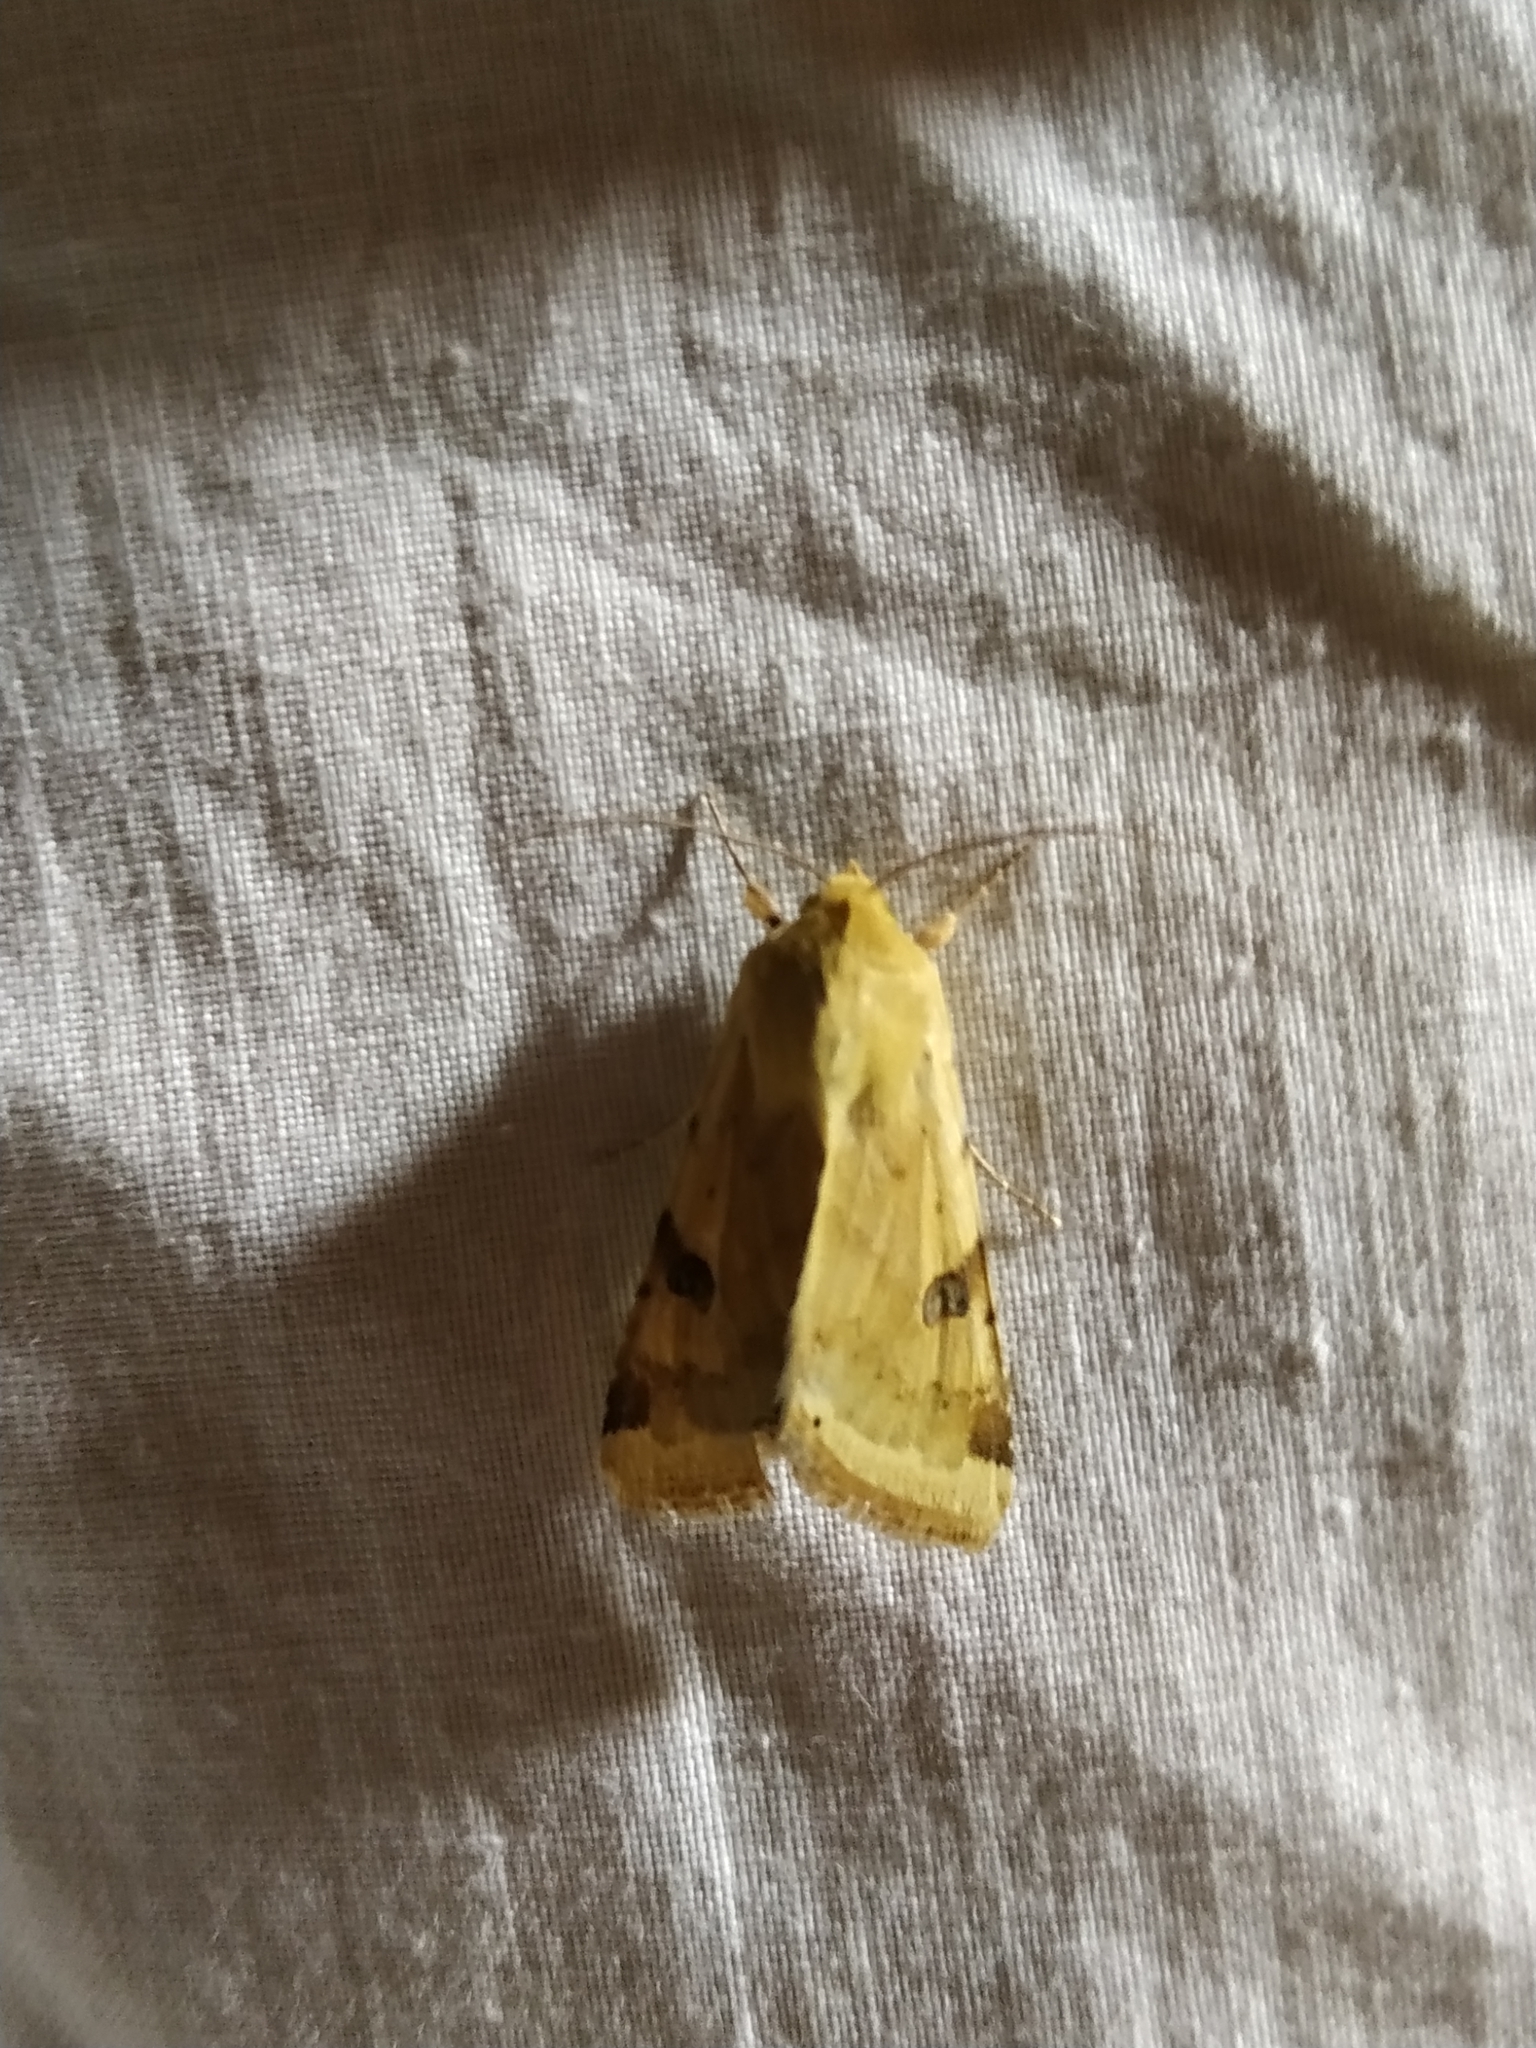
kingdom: Animalia
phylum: Arthropoda
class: Insecta
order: Lepidoptera
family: Noctuidae
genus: Heliothis
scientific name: Heliothis peltigera
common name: Bordered straw
